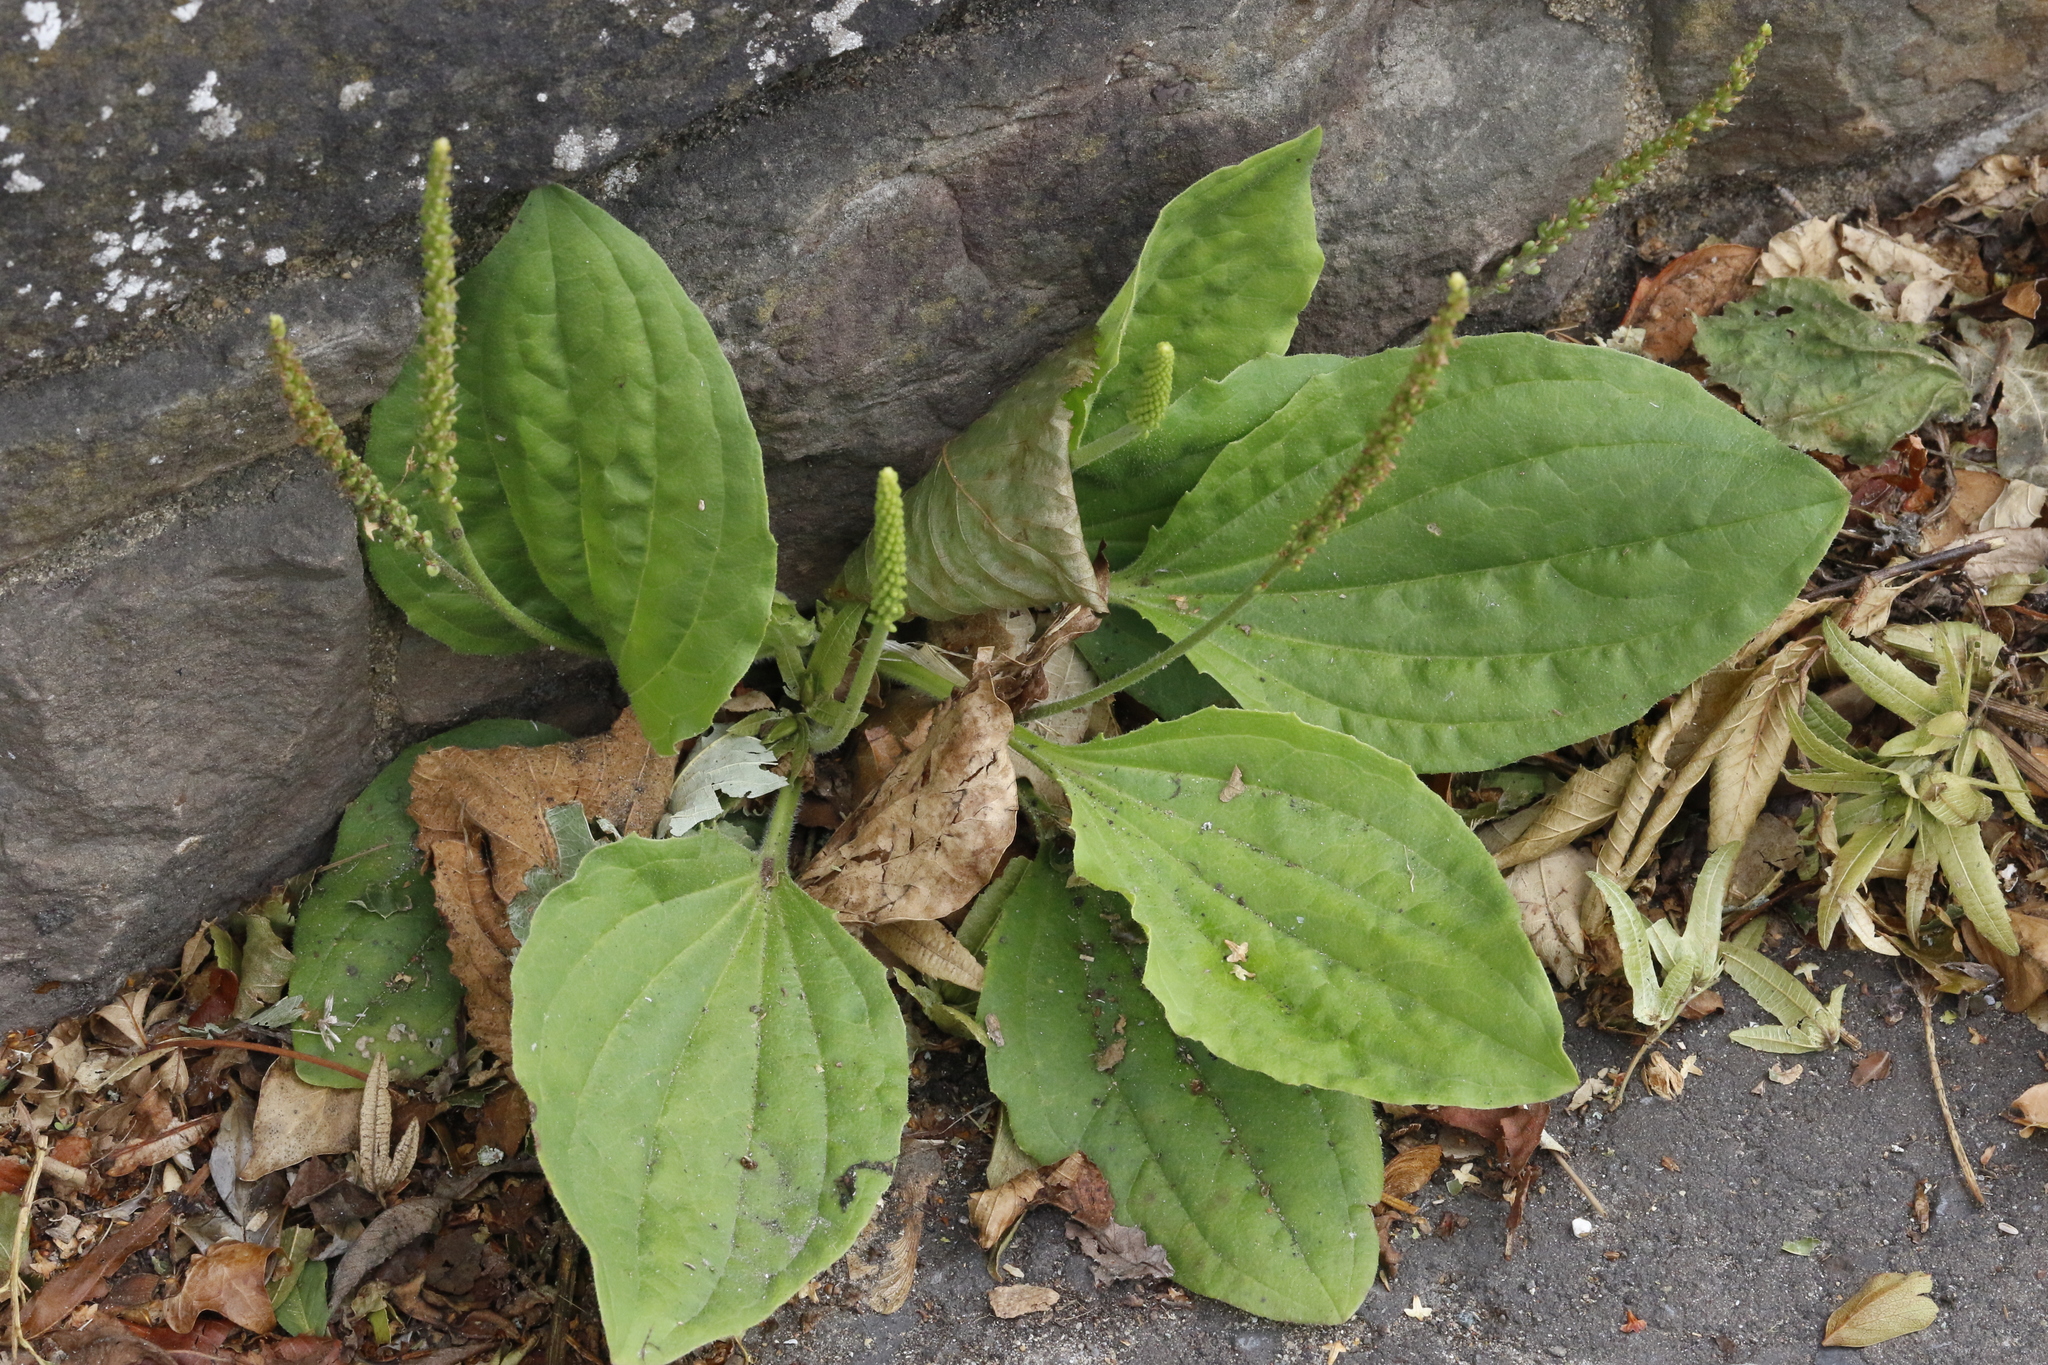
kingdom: Plantae
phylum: Tracheophyta
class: Magnoliopsida
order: Lamiales
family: Plantaginaceae
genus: Plantago
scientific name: Plantago major
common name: Common plantain
